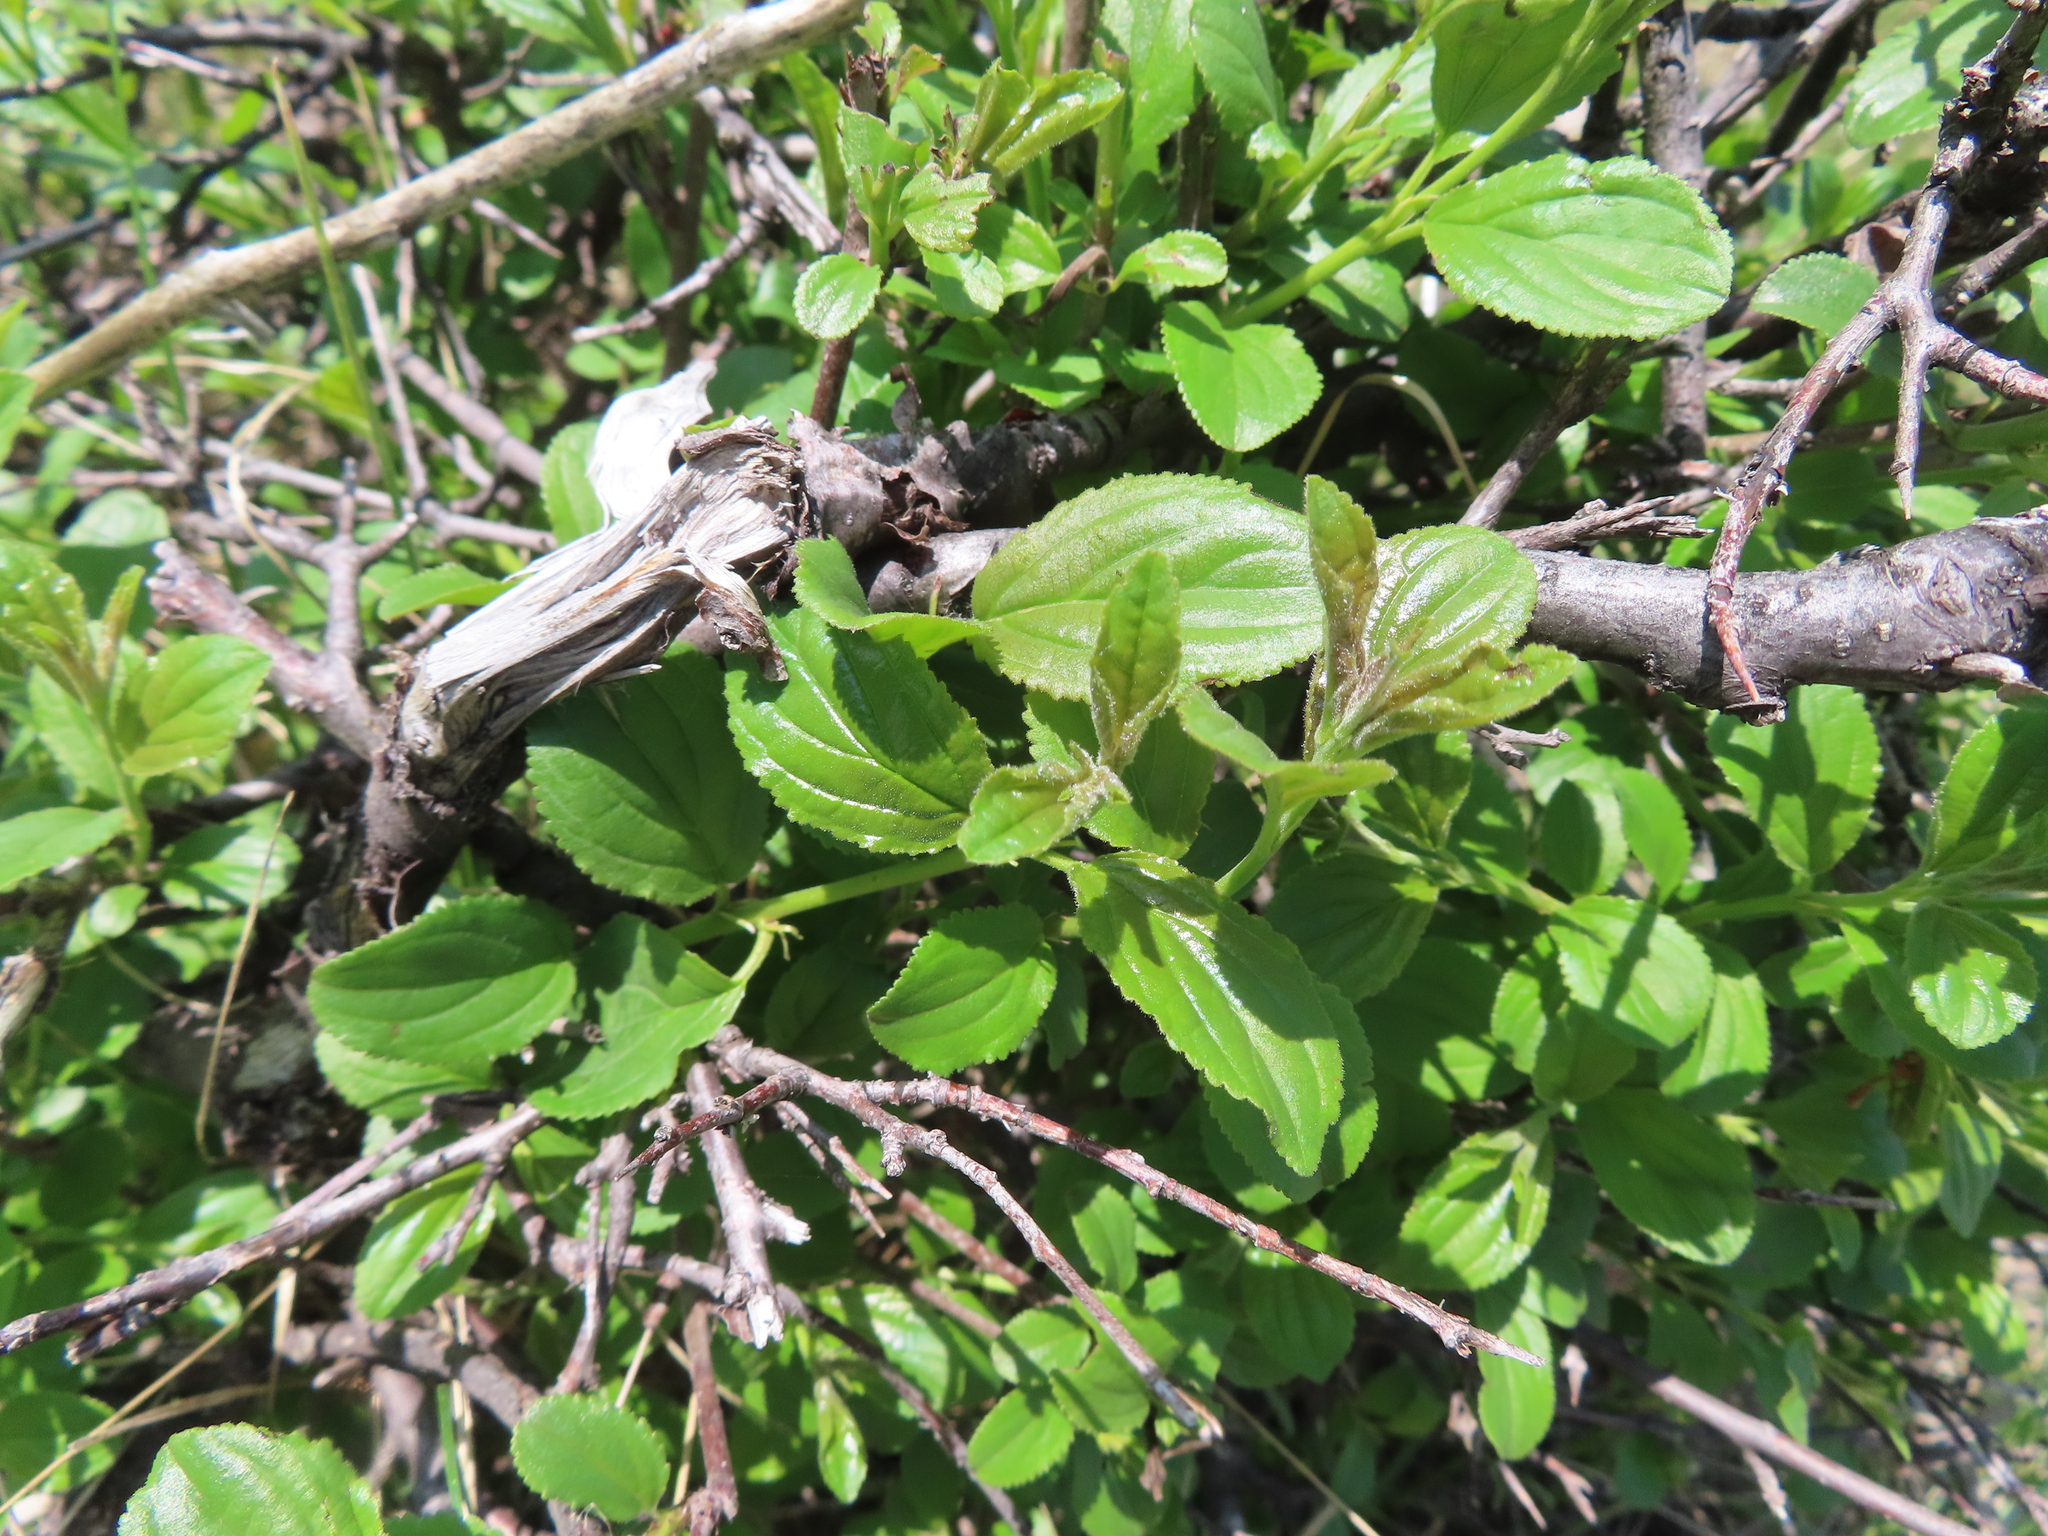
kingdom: Plantae
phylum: Tracheophyta
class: Magnoliopsida
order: Rosales
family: Rhamnaceae
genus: Rhamnus
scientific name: Rhamnus cathartica
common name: Common buckthorn
